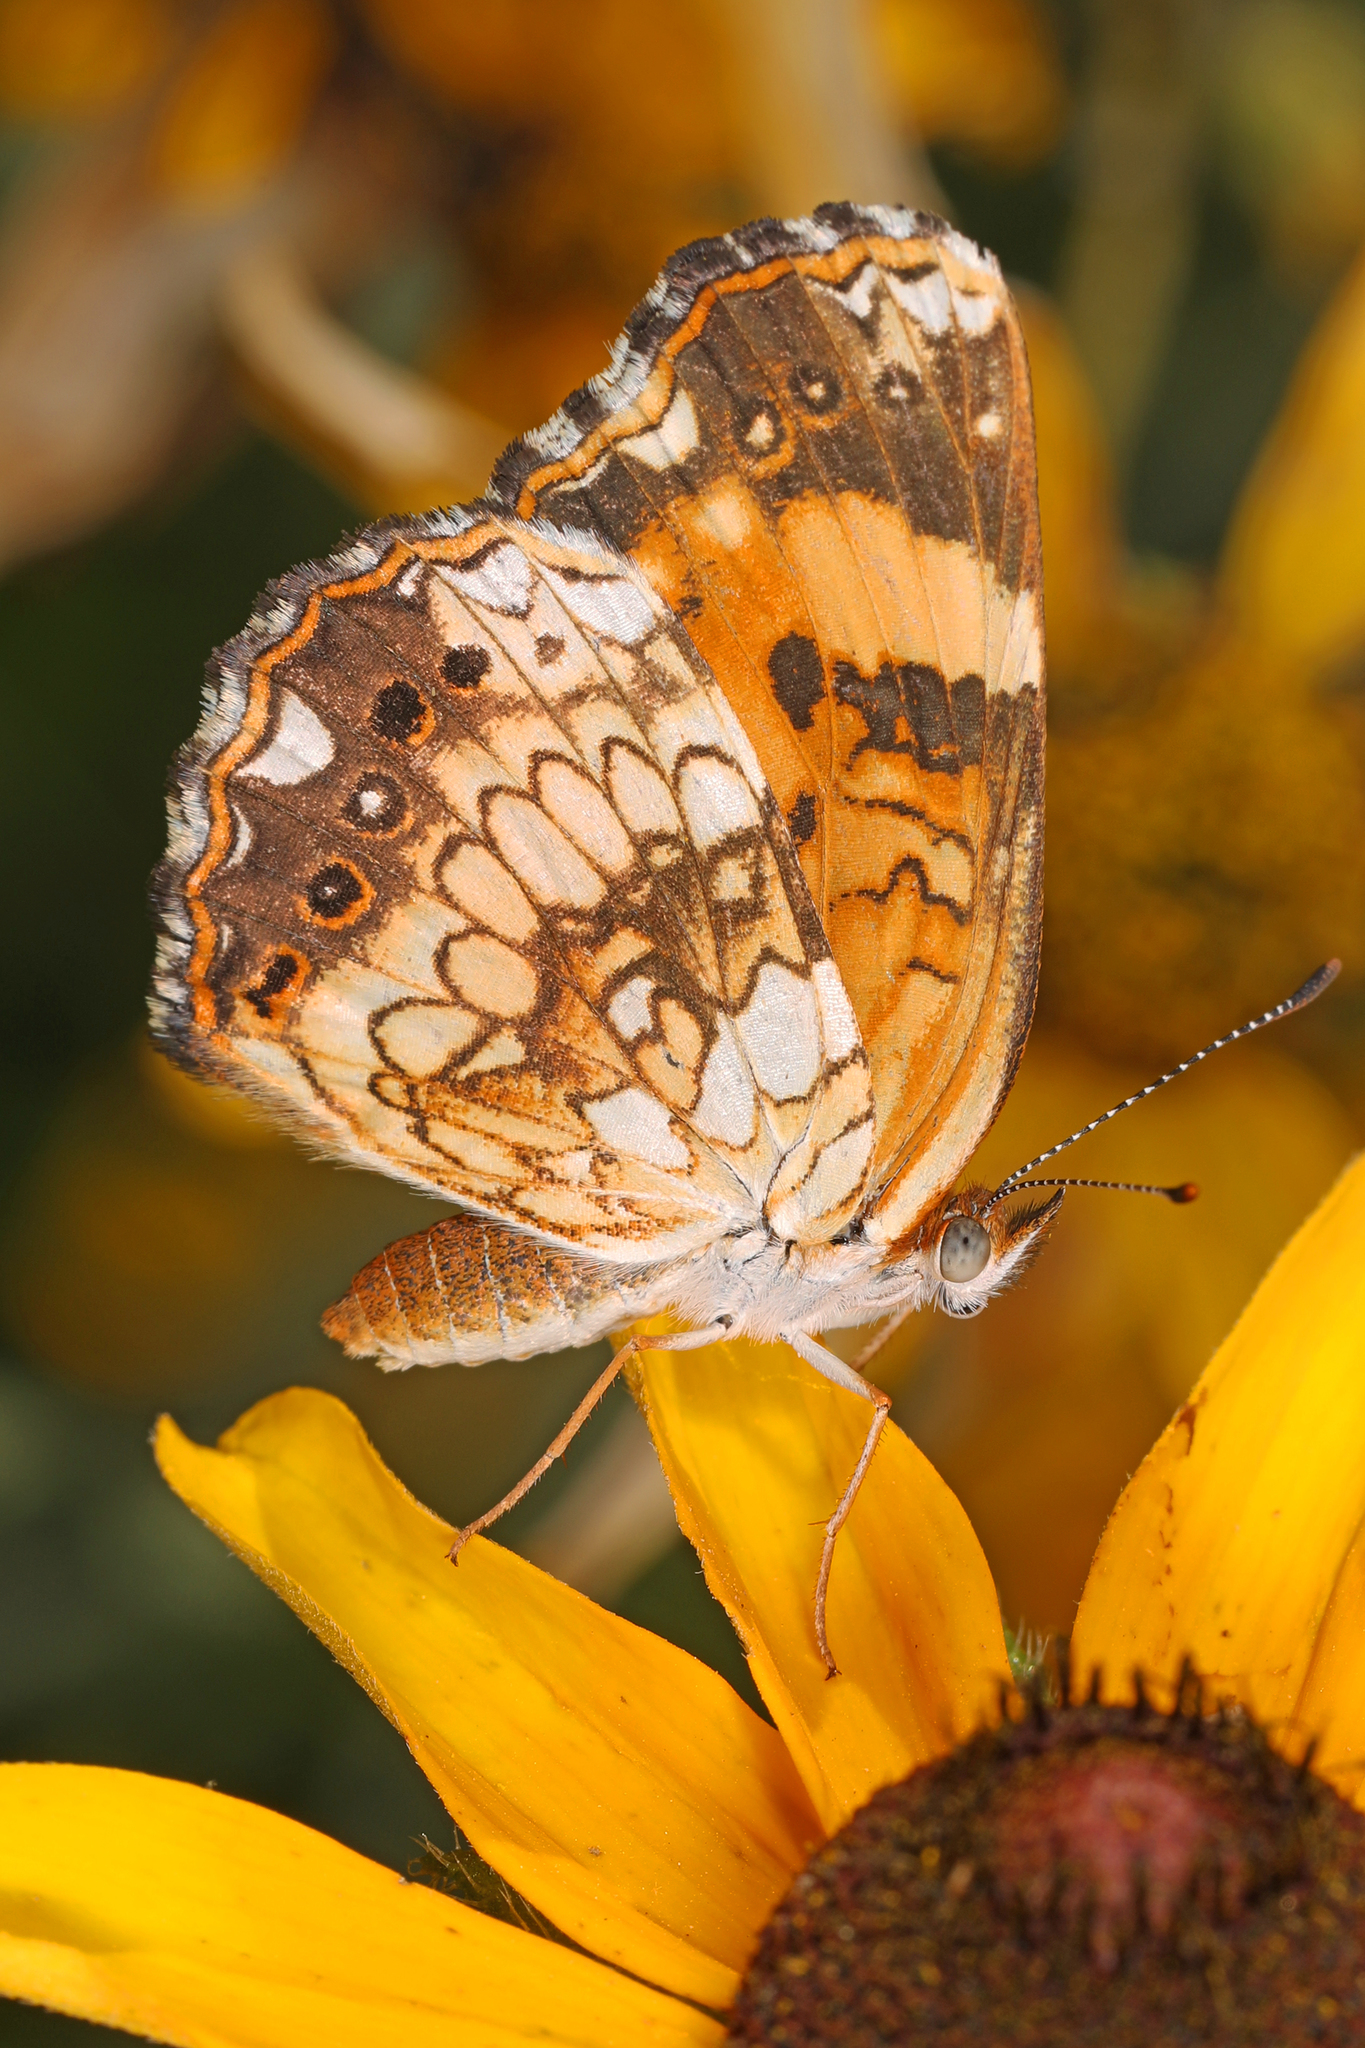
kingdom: Animalia
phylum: Arthropoda
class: Insecta
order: Lepidoptera
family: Nymphalidae
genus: Chlosyne
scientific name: Chlosyne nycteis
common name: Silvery checkerspot
